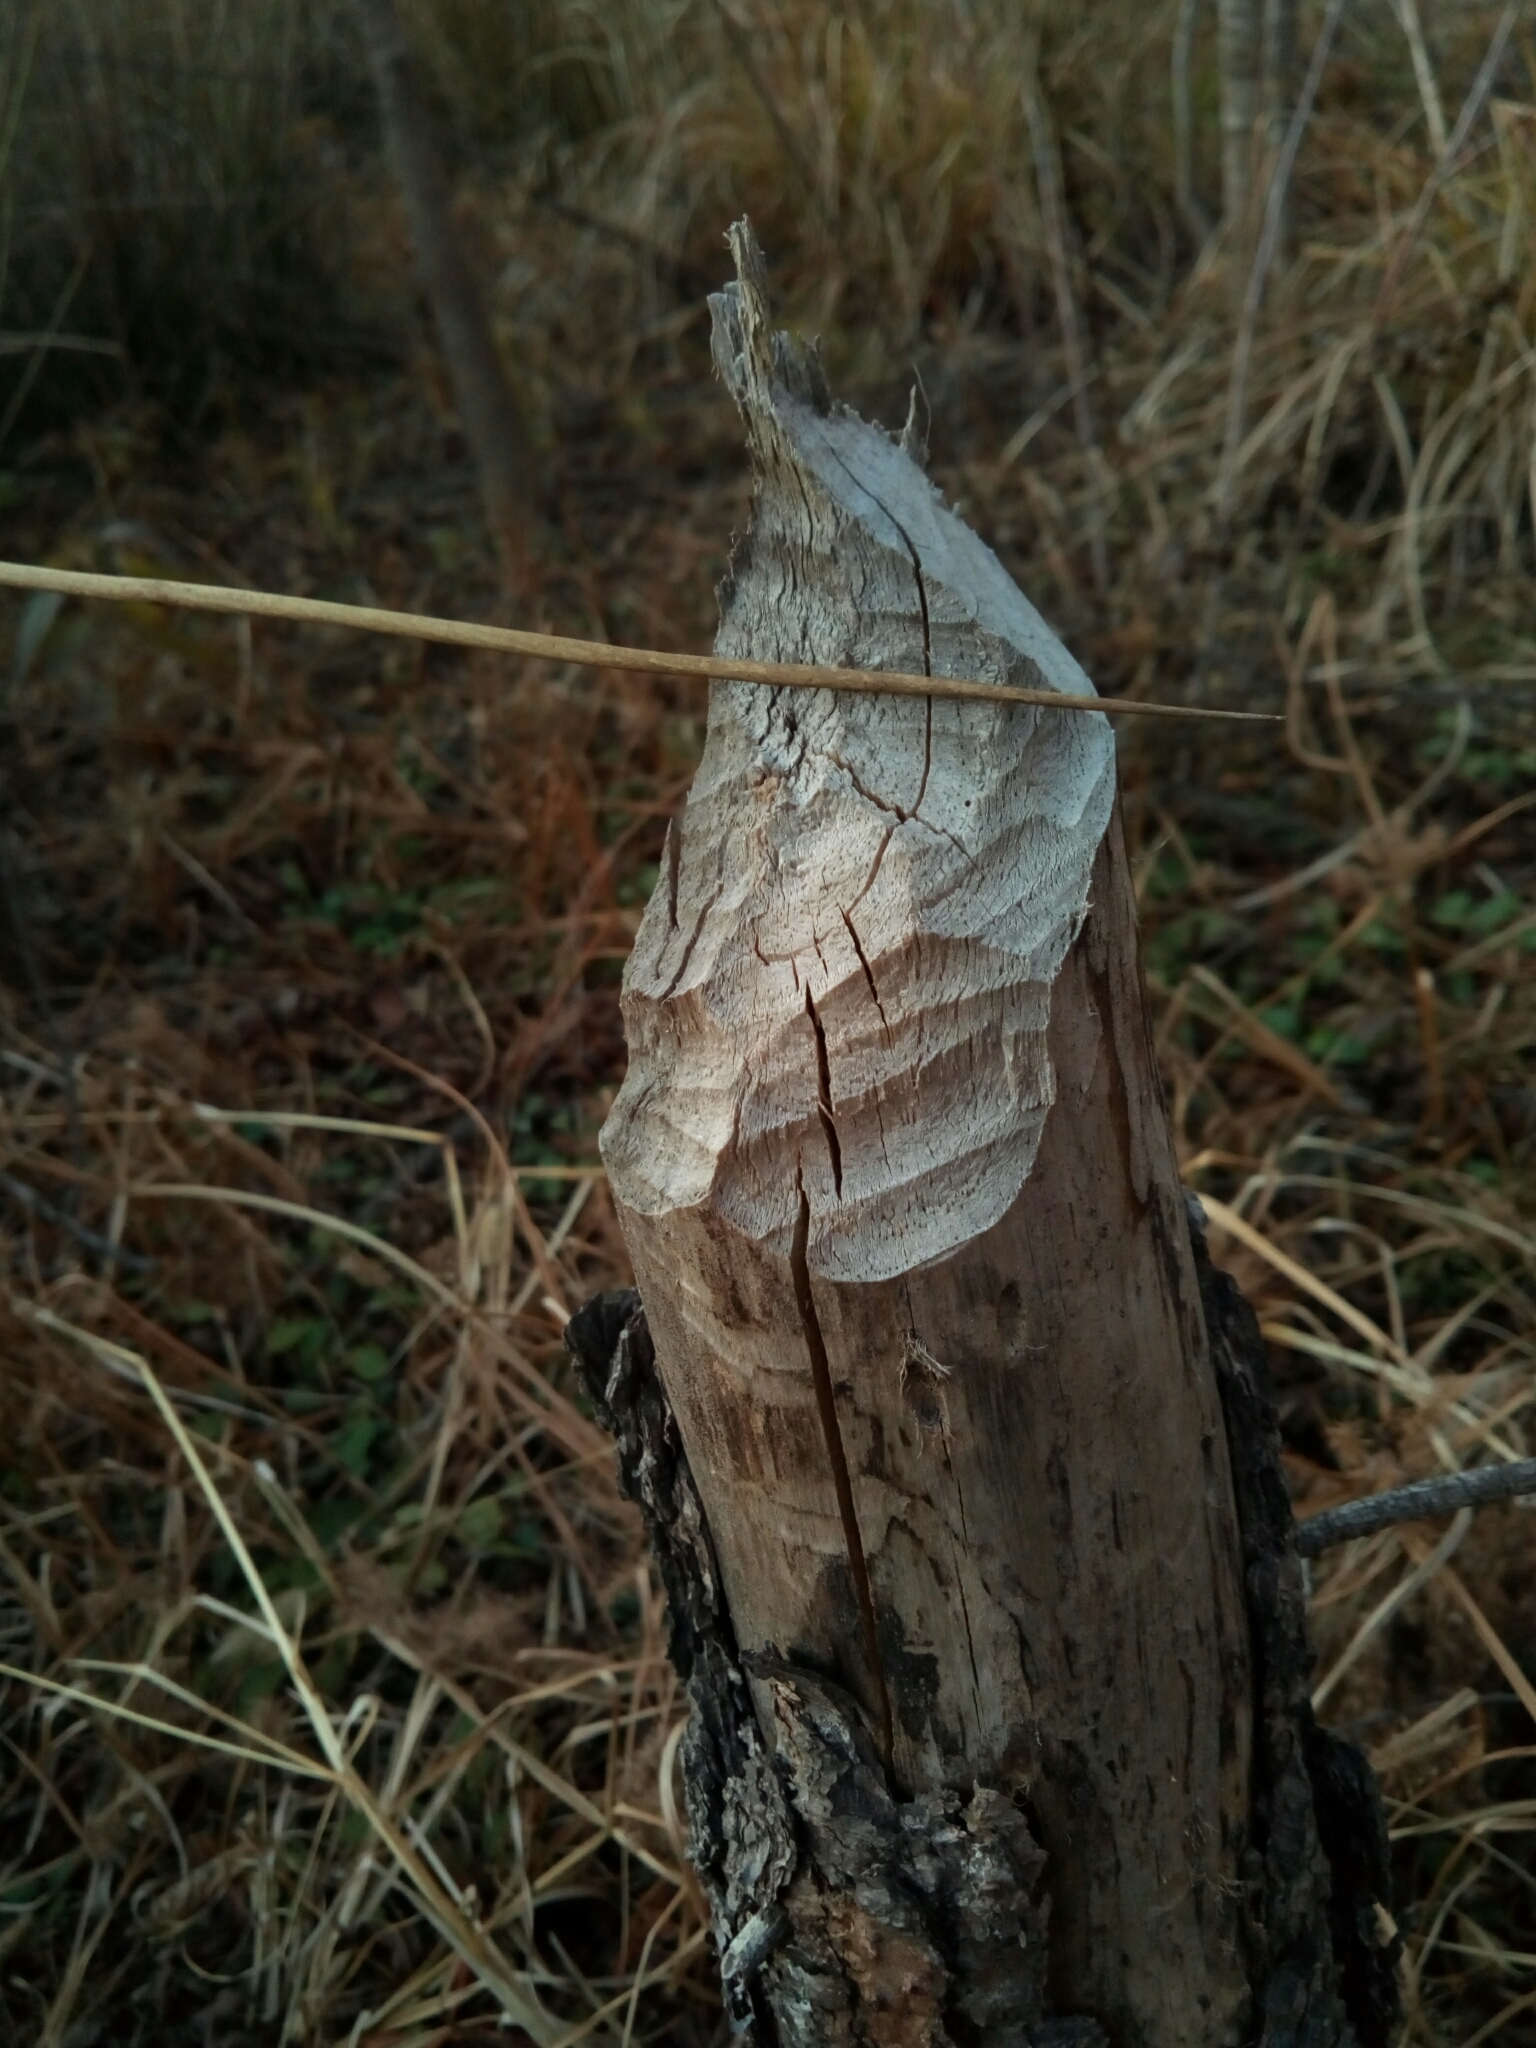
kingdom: Animalia
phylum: Chordata
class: Mammalia
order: Rodentia
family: Castoridae
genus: Castor
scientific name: Castor canadensis
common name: American beaver
